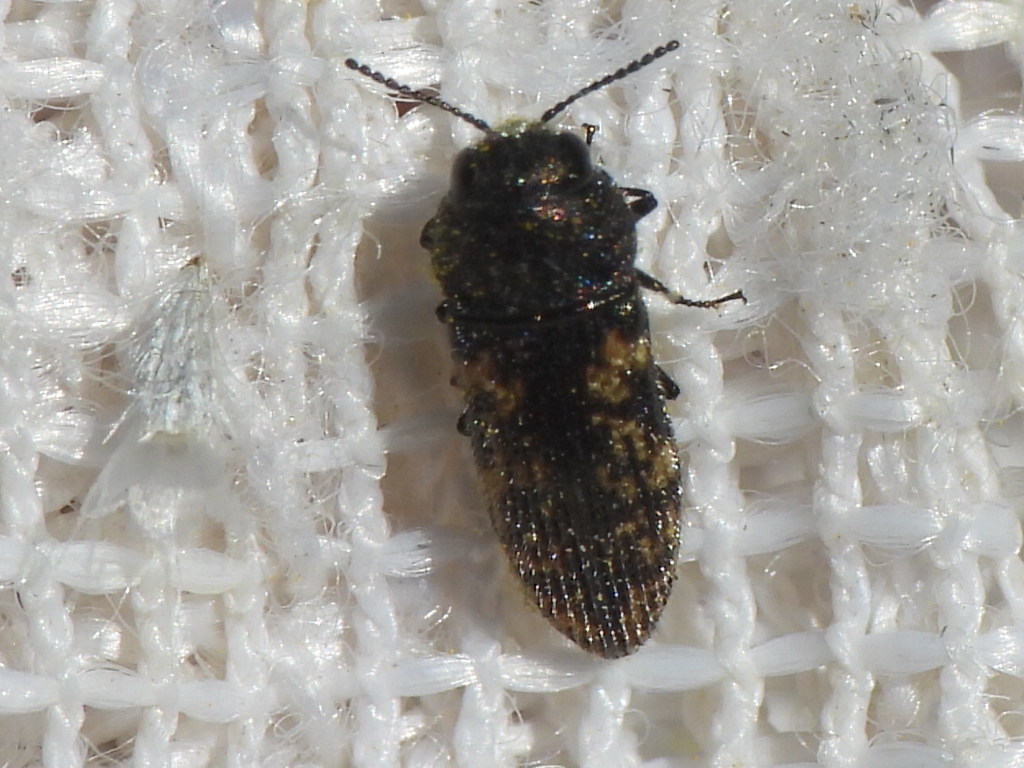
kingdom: Animalia
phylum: Arthropoda
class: Insecta
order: Coleoptera
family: Buprestidae
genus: Acmaeodera
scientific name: Acmaeodera neglecta
